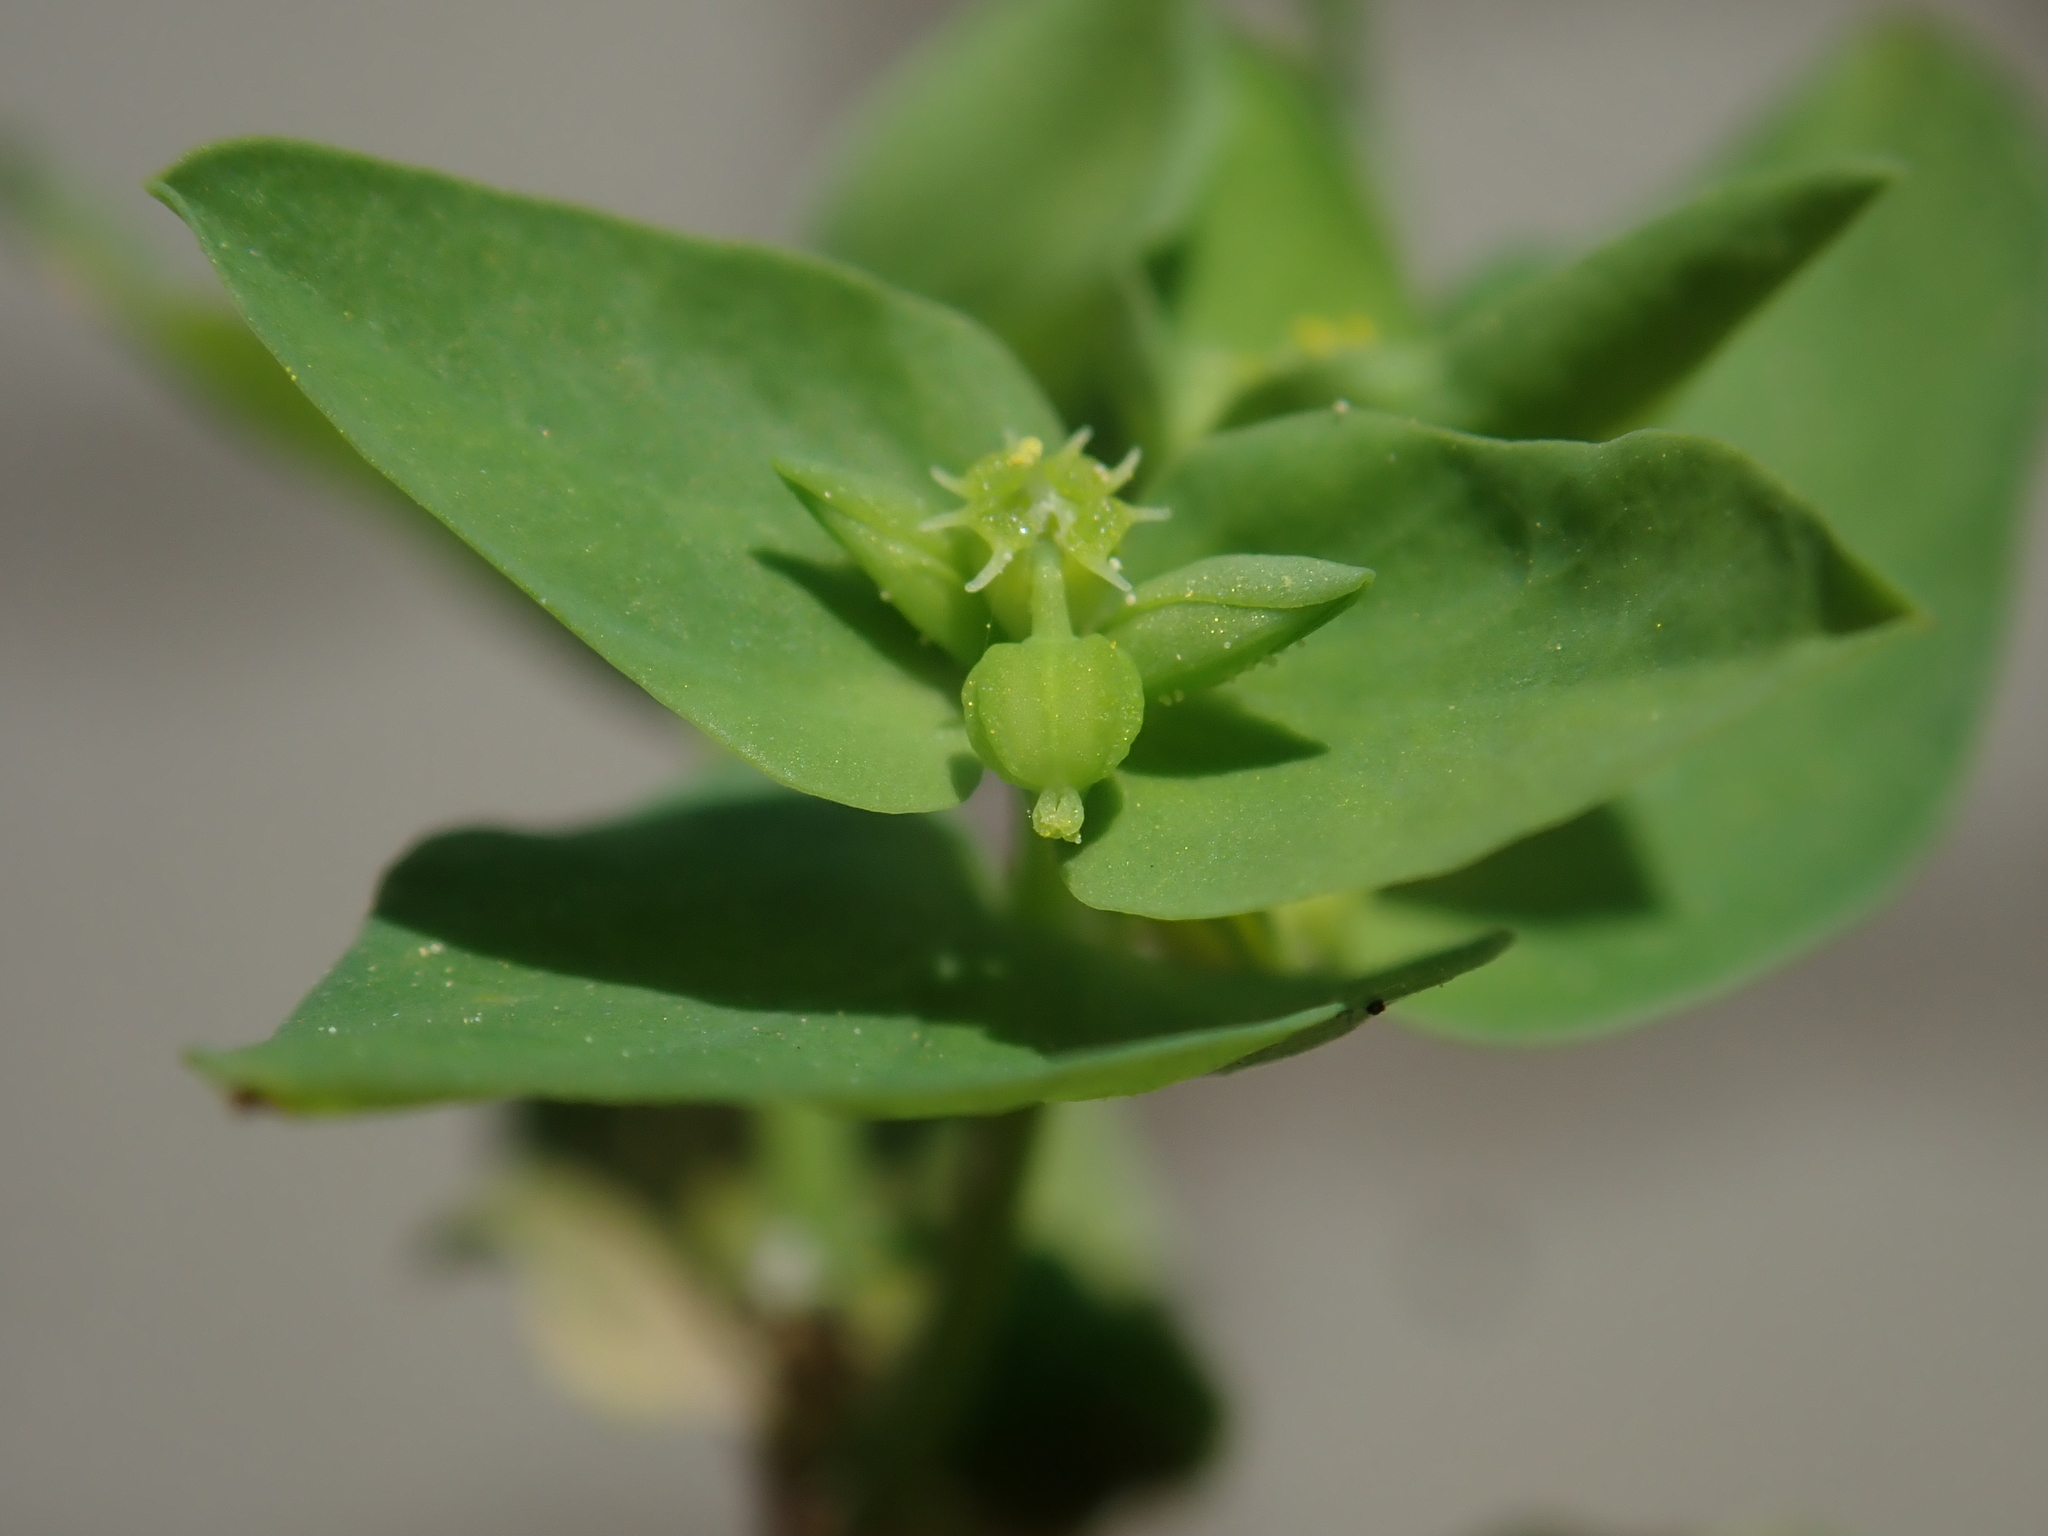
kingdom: Plantae
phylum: Tracheophyta
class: Magnoliopsida
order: Malpighiales
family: Euphorbiaceae
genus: Euphorbia
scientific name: Euphorbia peplus
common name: Petty spurge
